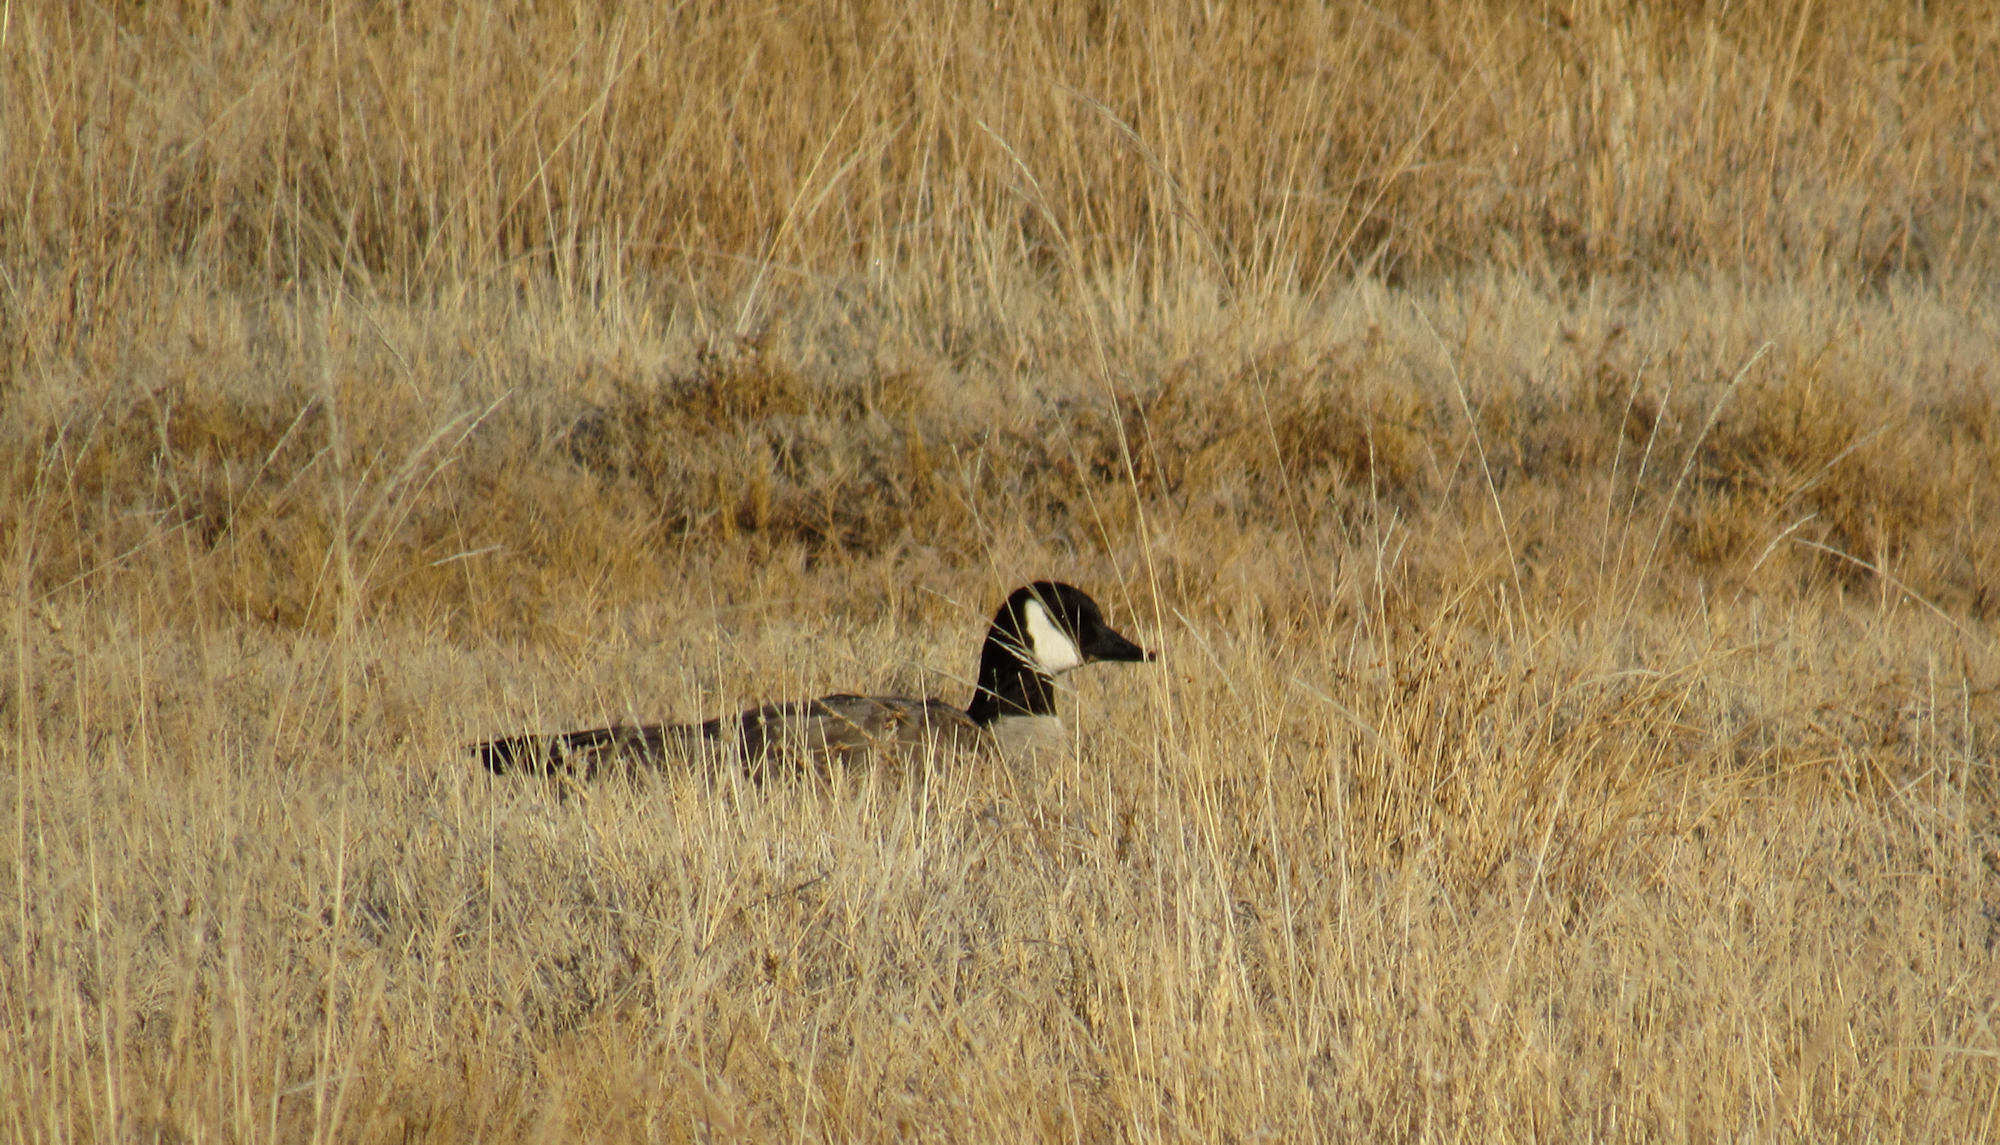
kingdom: Animalia
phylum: Chordata
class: Aves
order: Anseriformes
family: Anatidae
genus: Branta
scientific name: Branta canadensis
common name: Canada goose
